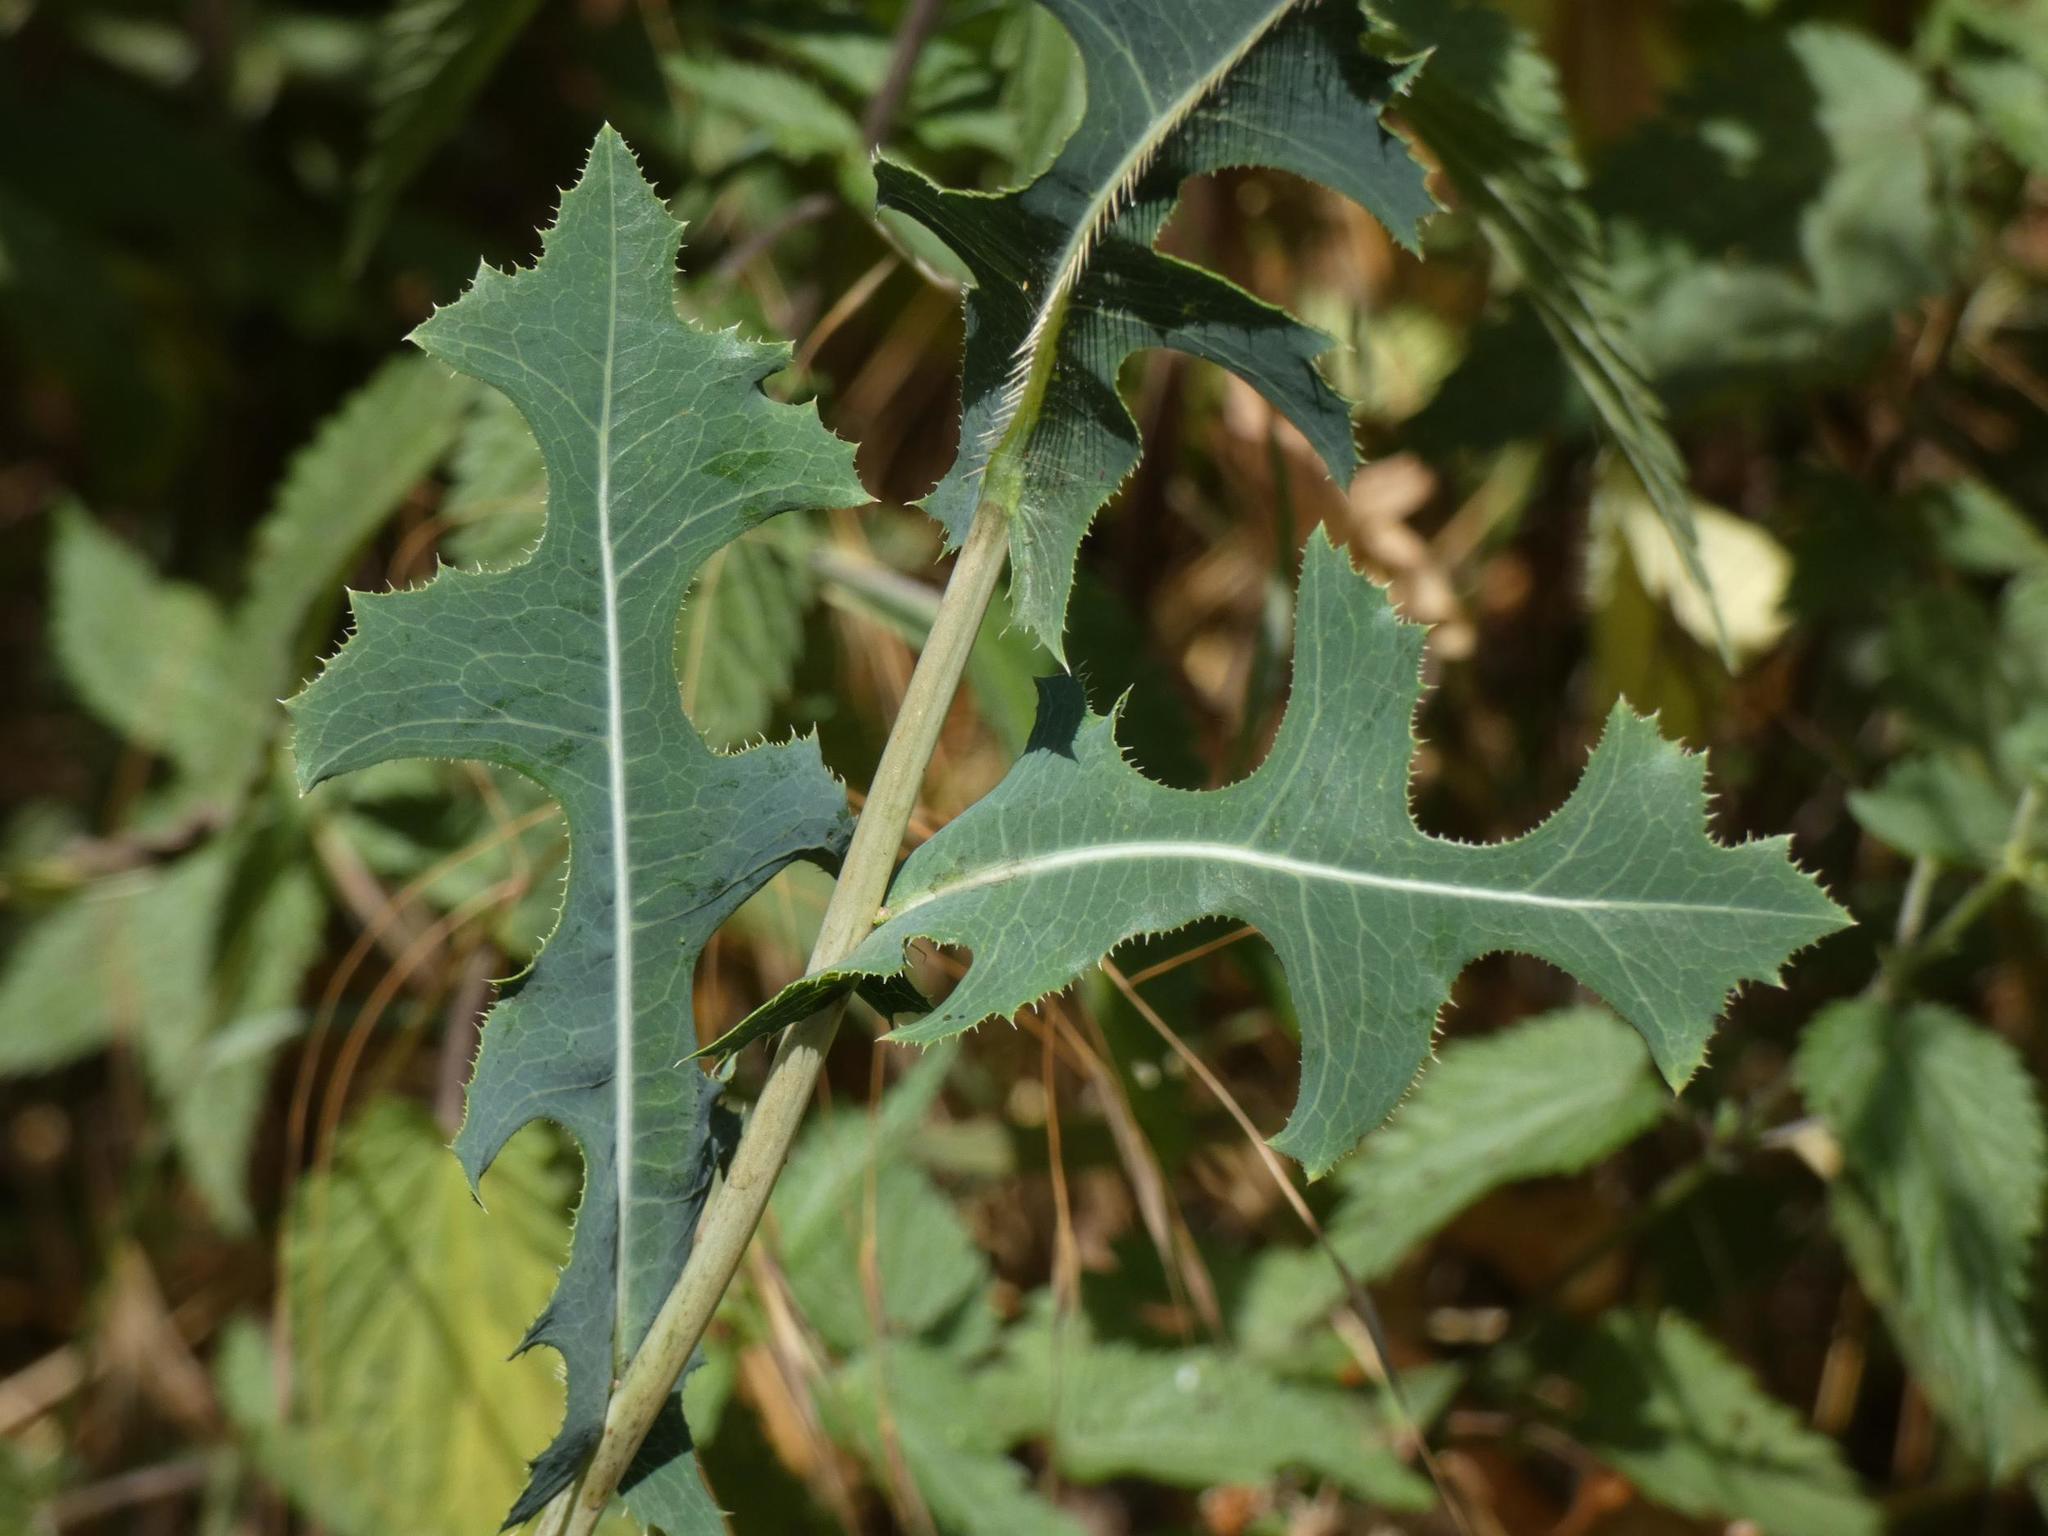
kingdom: Plantae
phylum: Tracheophyta
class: Magnoliopsida
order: Asterales
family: Asteraceae
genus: Lactuca
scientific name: Lactuca serriola
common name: Prickly lettuce
